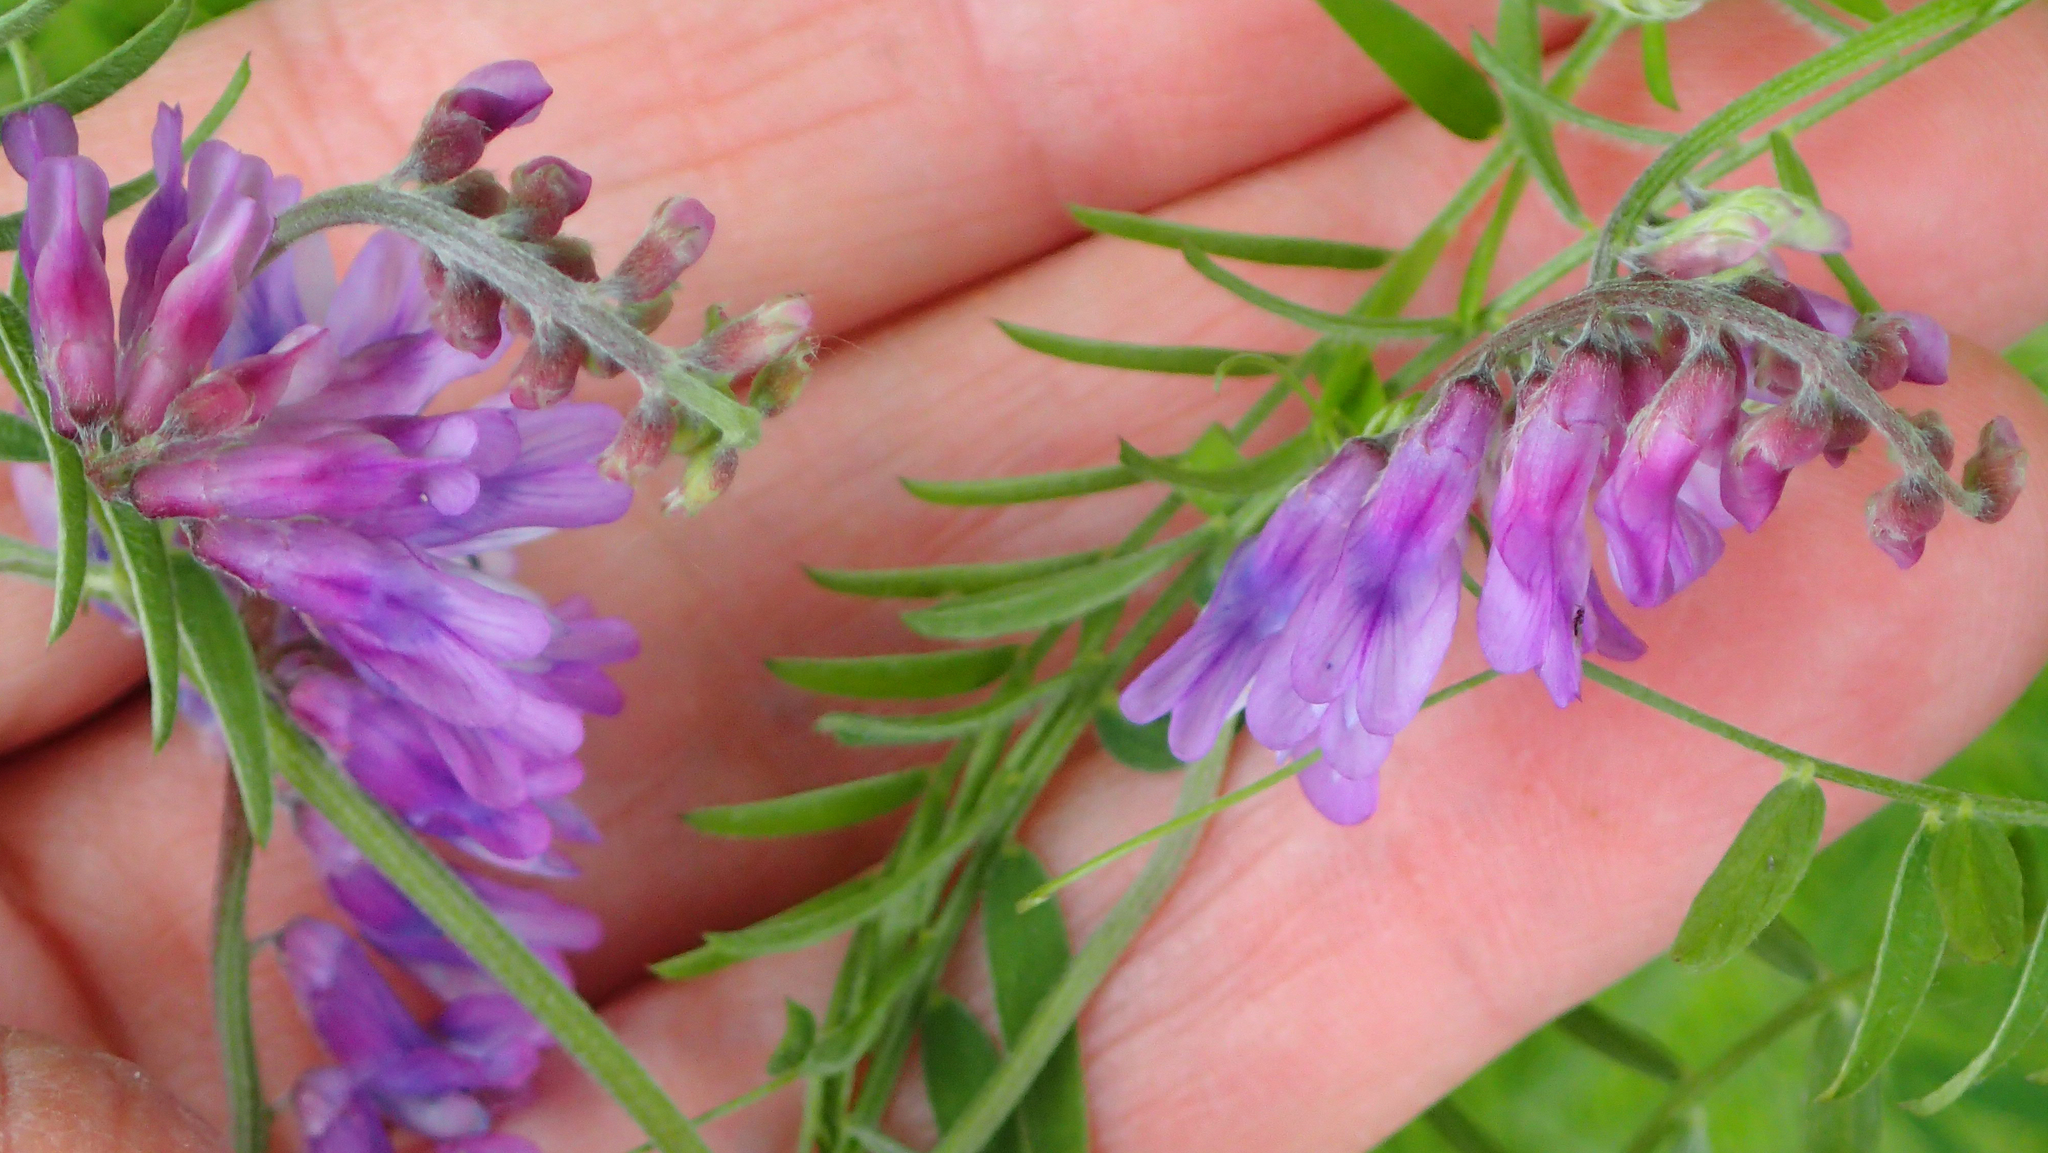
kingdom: Plantae
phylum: Tracheophyta
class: Magnoliopsida
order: Fabales
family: Fabaceae
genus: Vicia
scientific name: Vicia cracca
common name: Bird vetch
